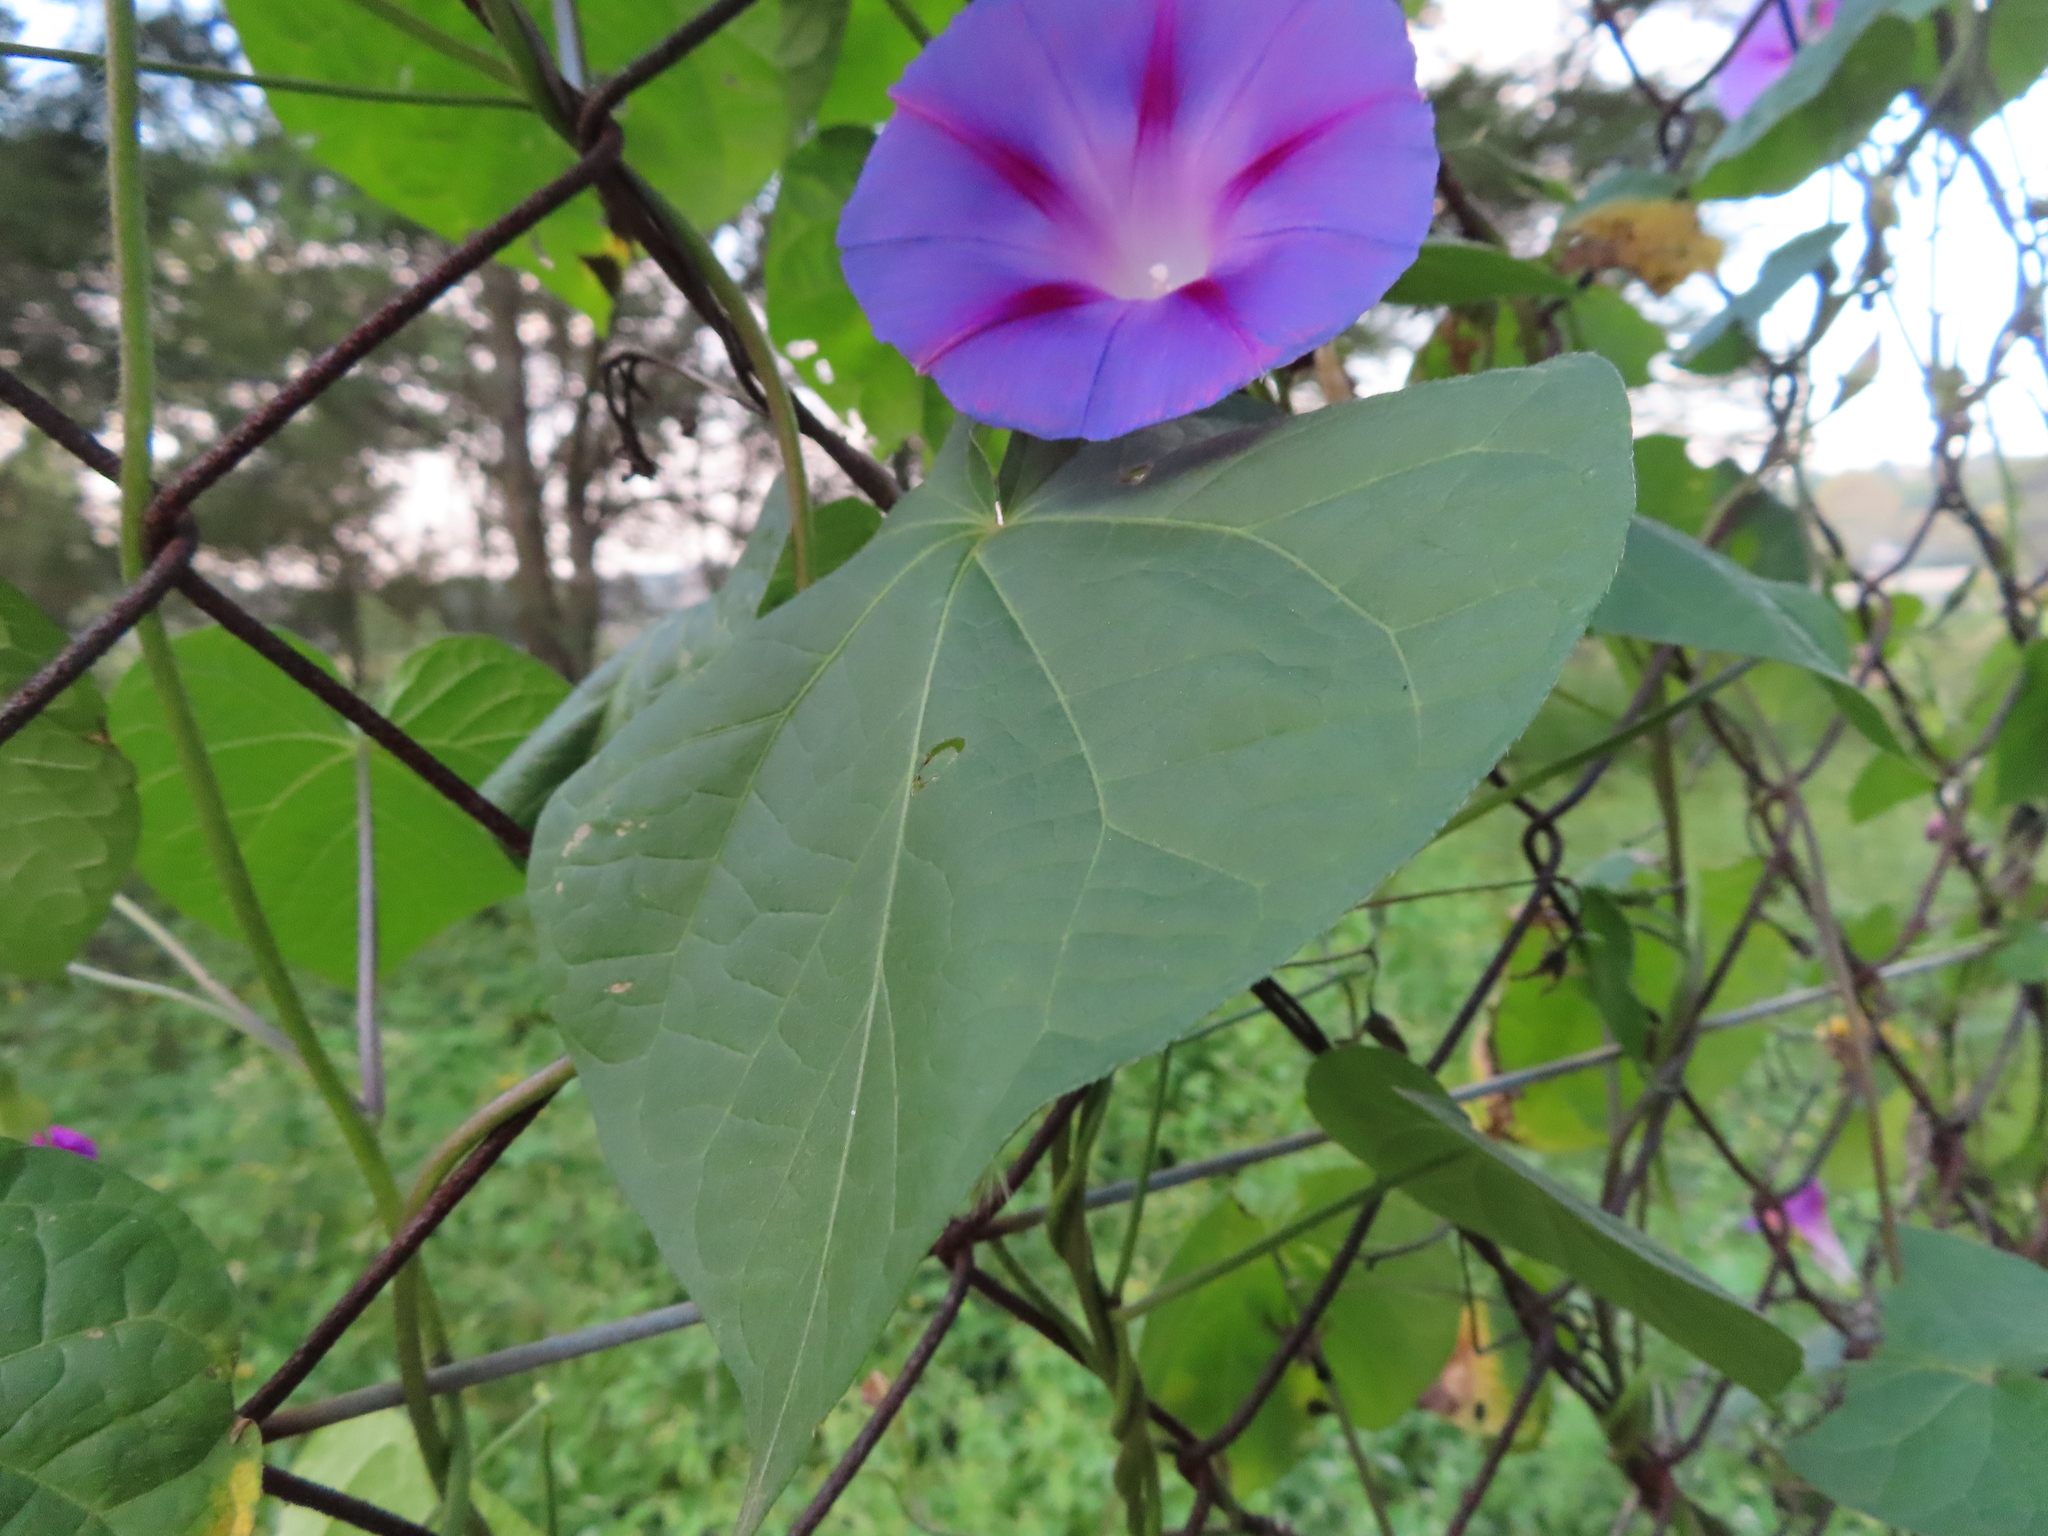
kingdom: Plantae
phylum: Tracheophyta
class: Magnoliopsida
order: Solanales
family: Convolvulaceae
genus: Ipomoea
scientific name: Ipomoea purpurea
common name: Common morning-glory
